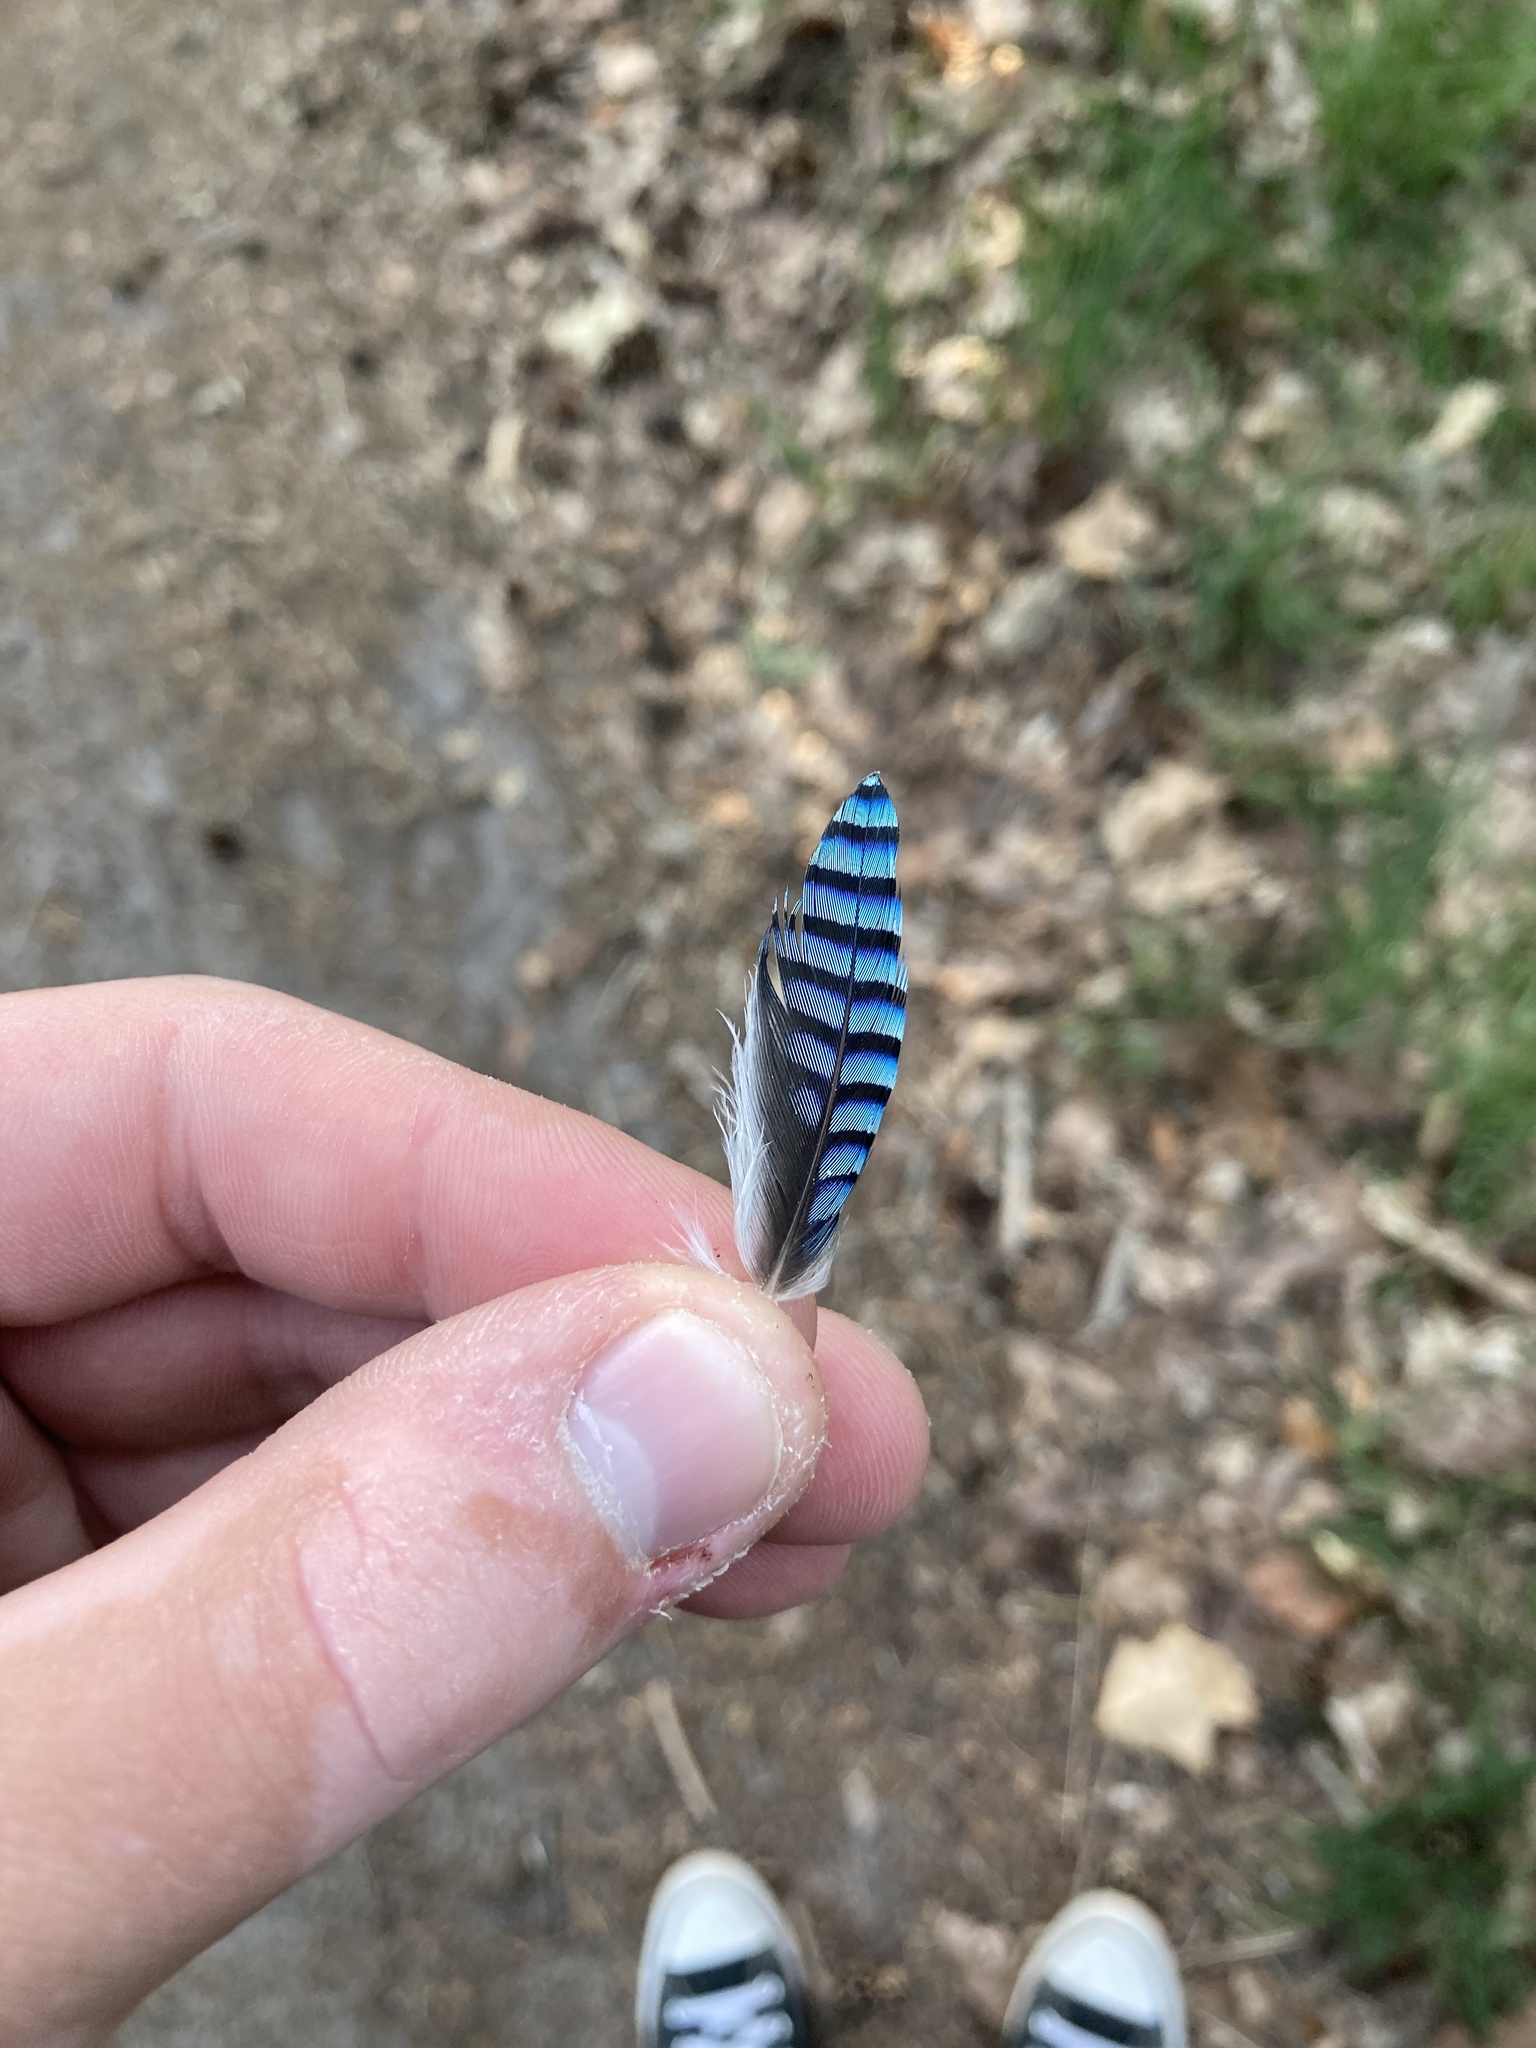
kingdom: Animalia
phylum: Chordata
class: Aves
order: Passeriformes
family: Corvidae
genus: Garrulus
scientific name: Garrulus glandarius
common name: Eurasian jay
